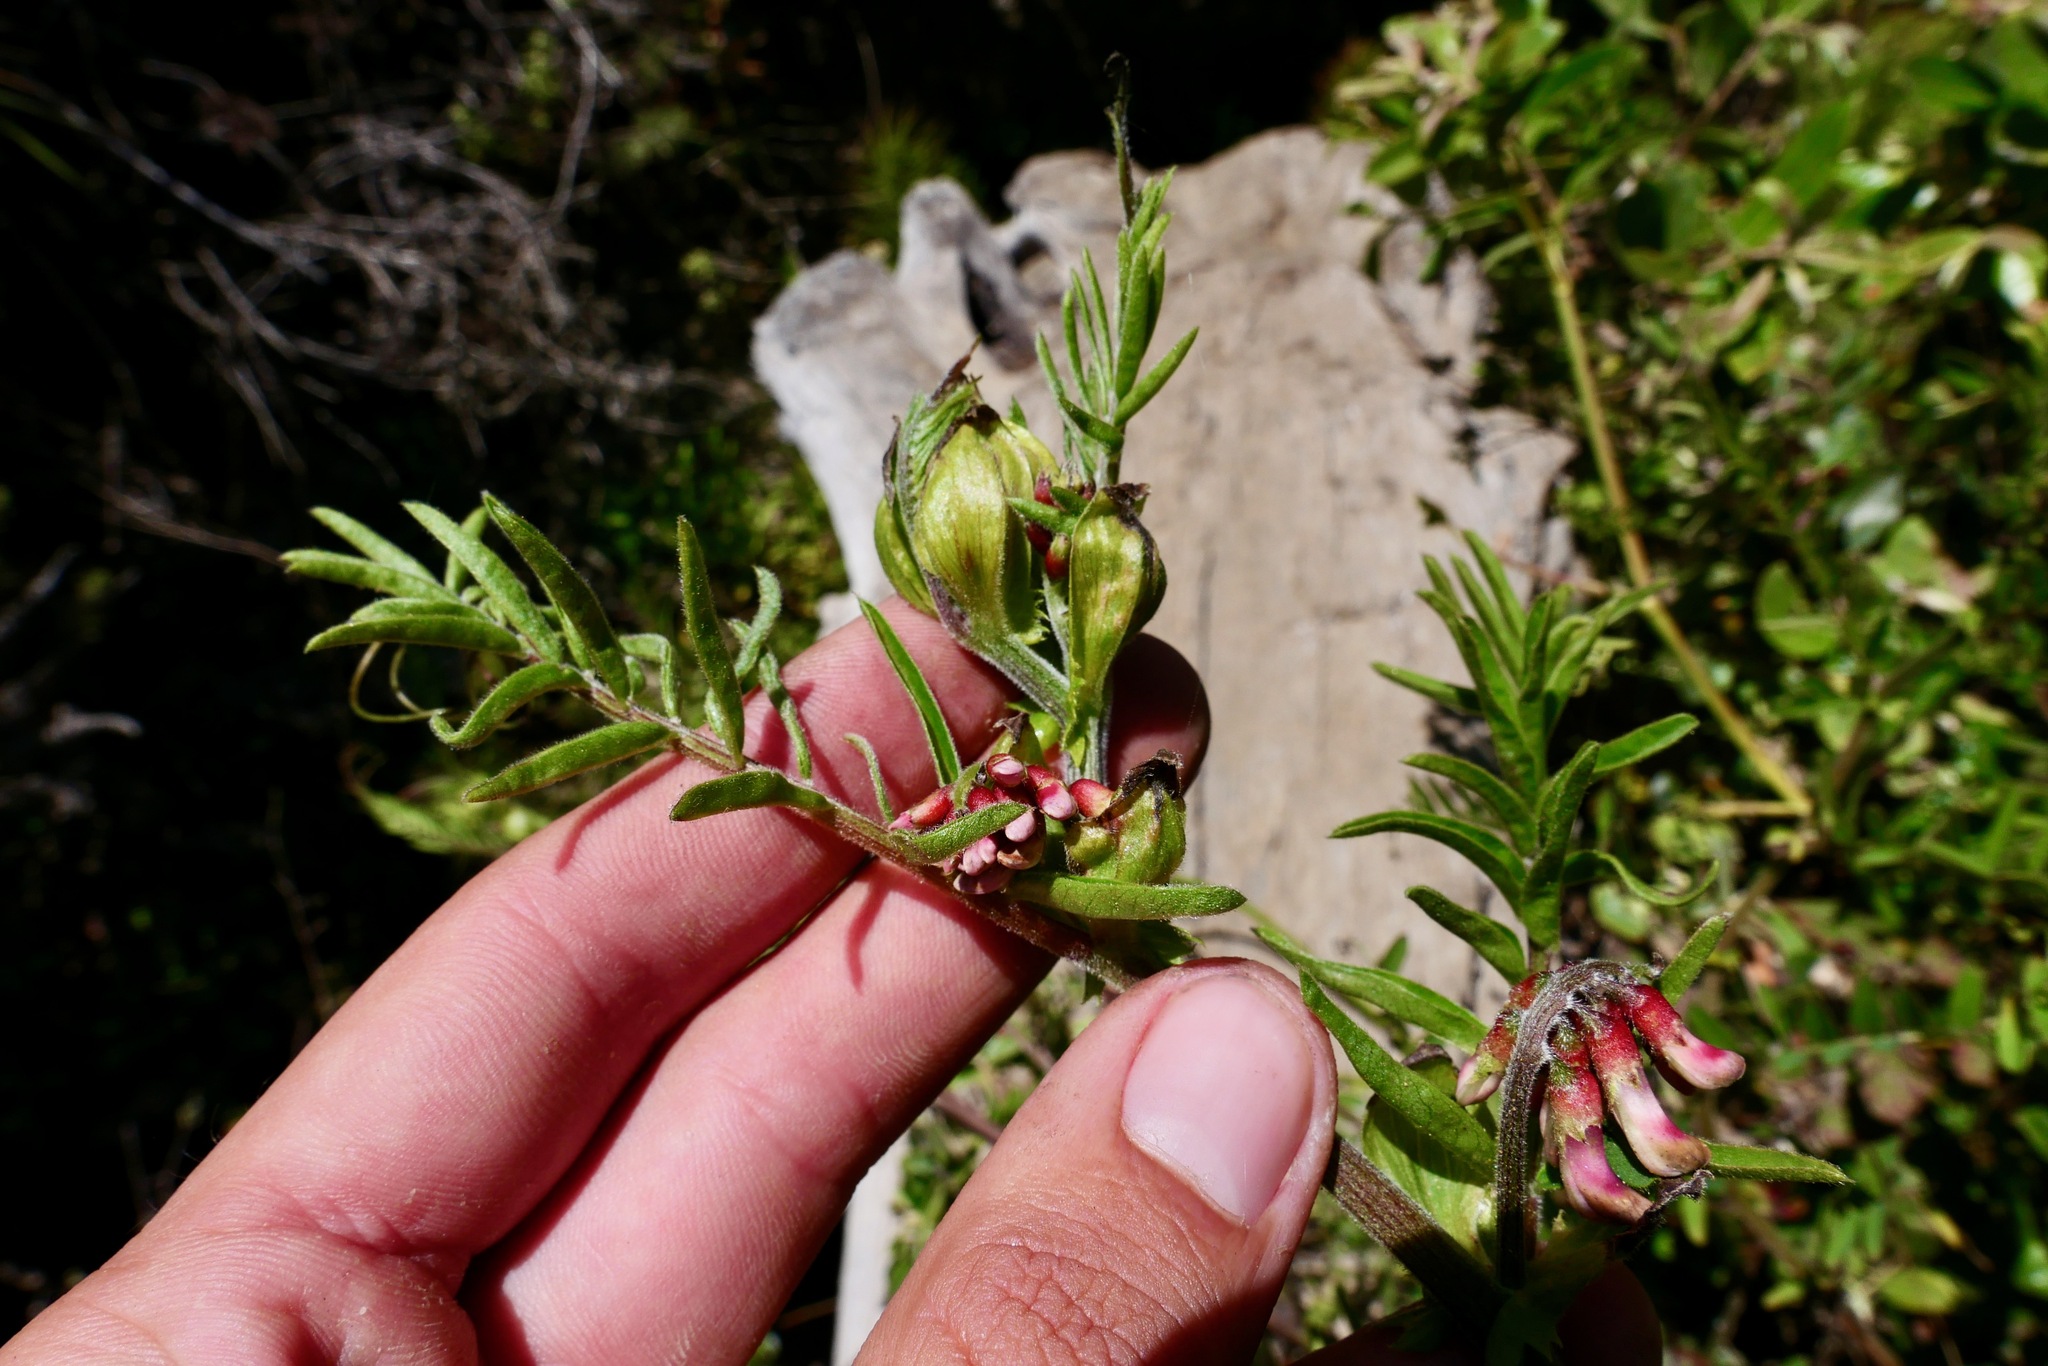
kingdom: Plantae
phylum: Tracheophyta
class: Magnoliopsida
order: Fabales
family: Fabaceae
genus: Vicia
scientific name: Vicia
